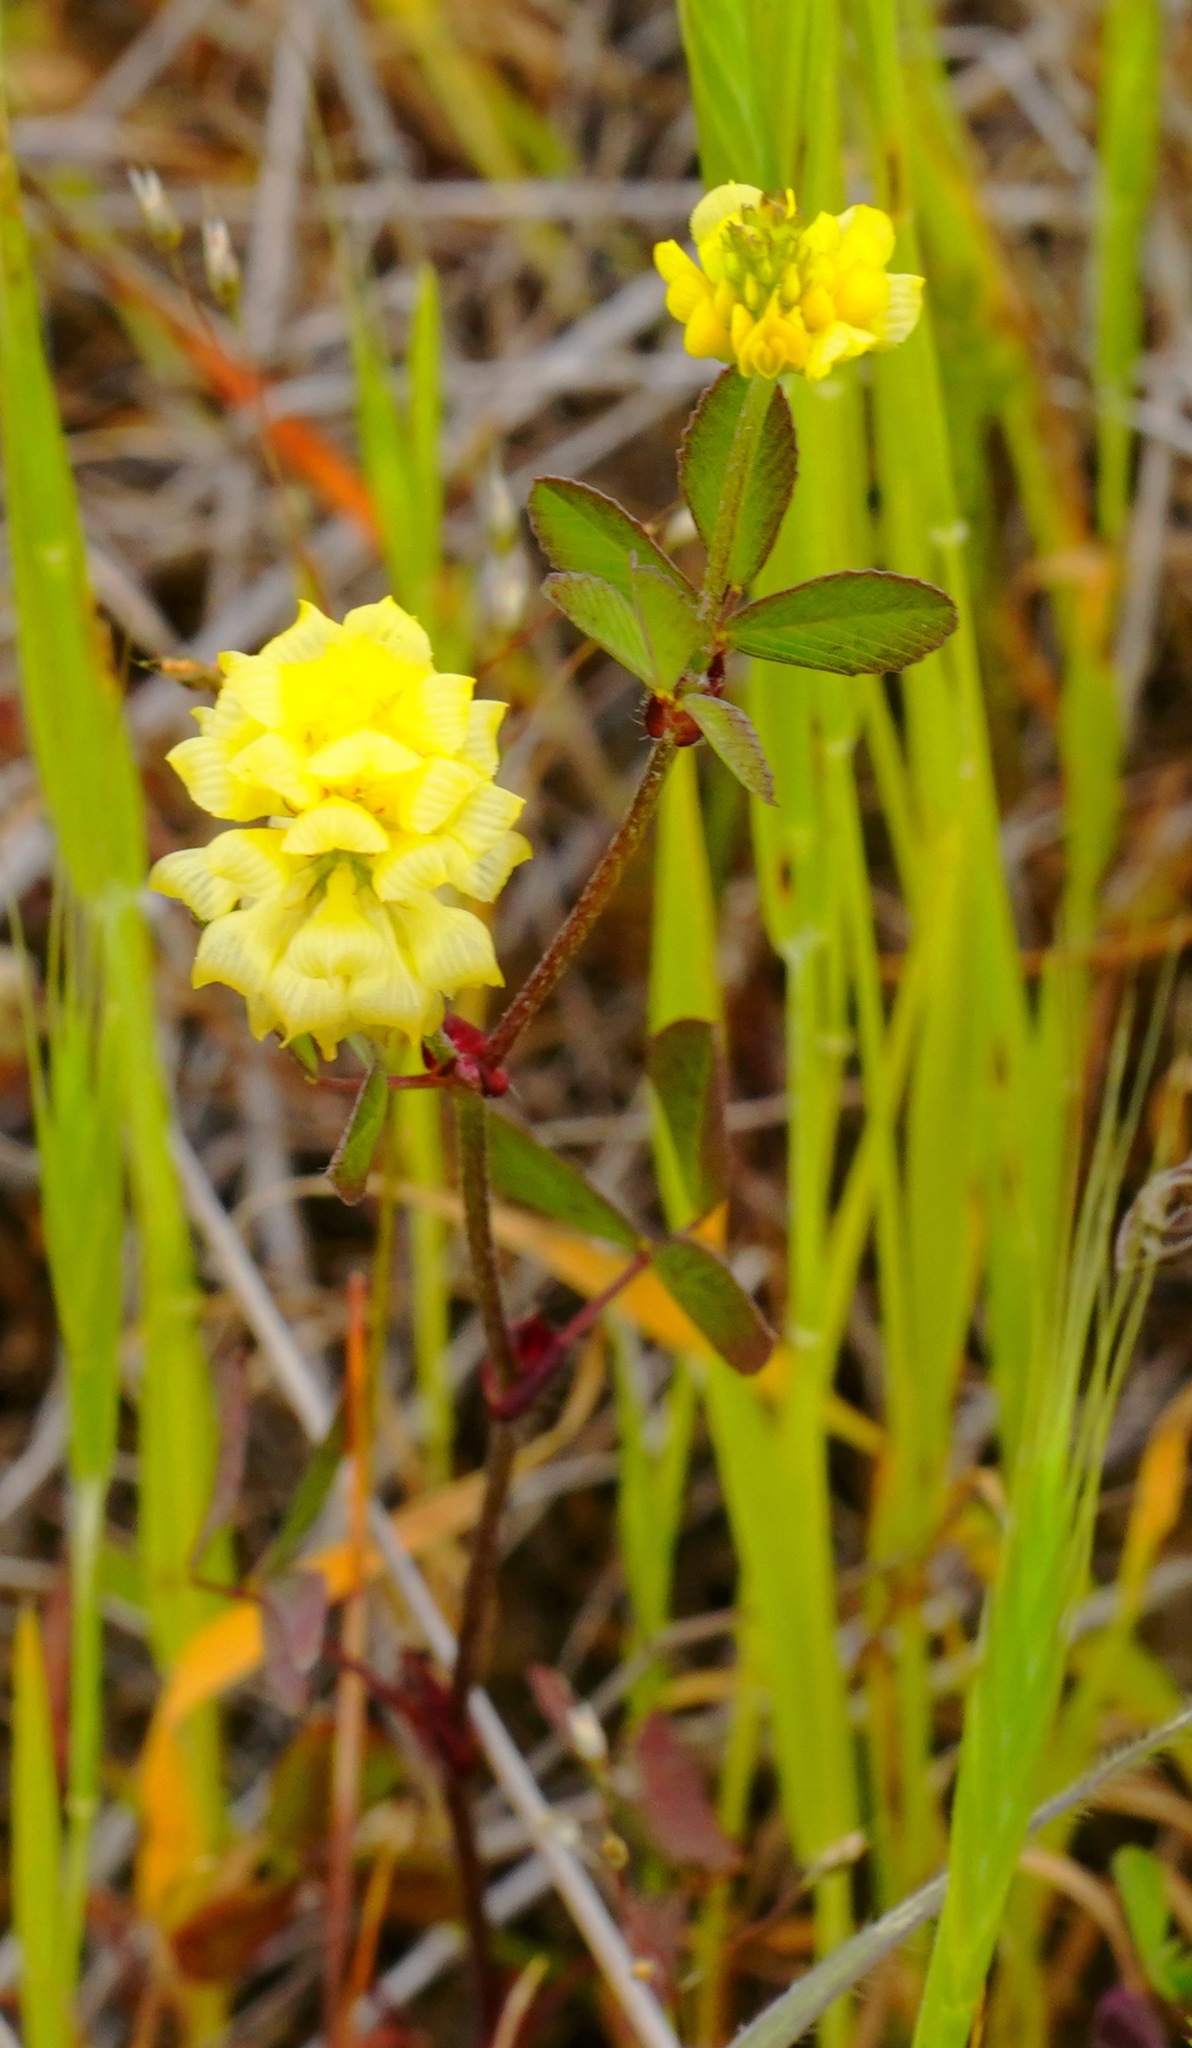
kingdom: Plantae
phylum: Tracheophyta
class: Magnoliopsida
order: Fabales
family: Fabaceae
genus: Trifolium
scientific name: Trifolium campestre
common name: Field clover
